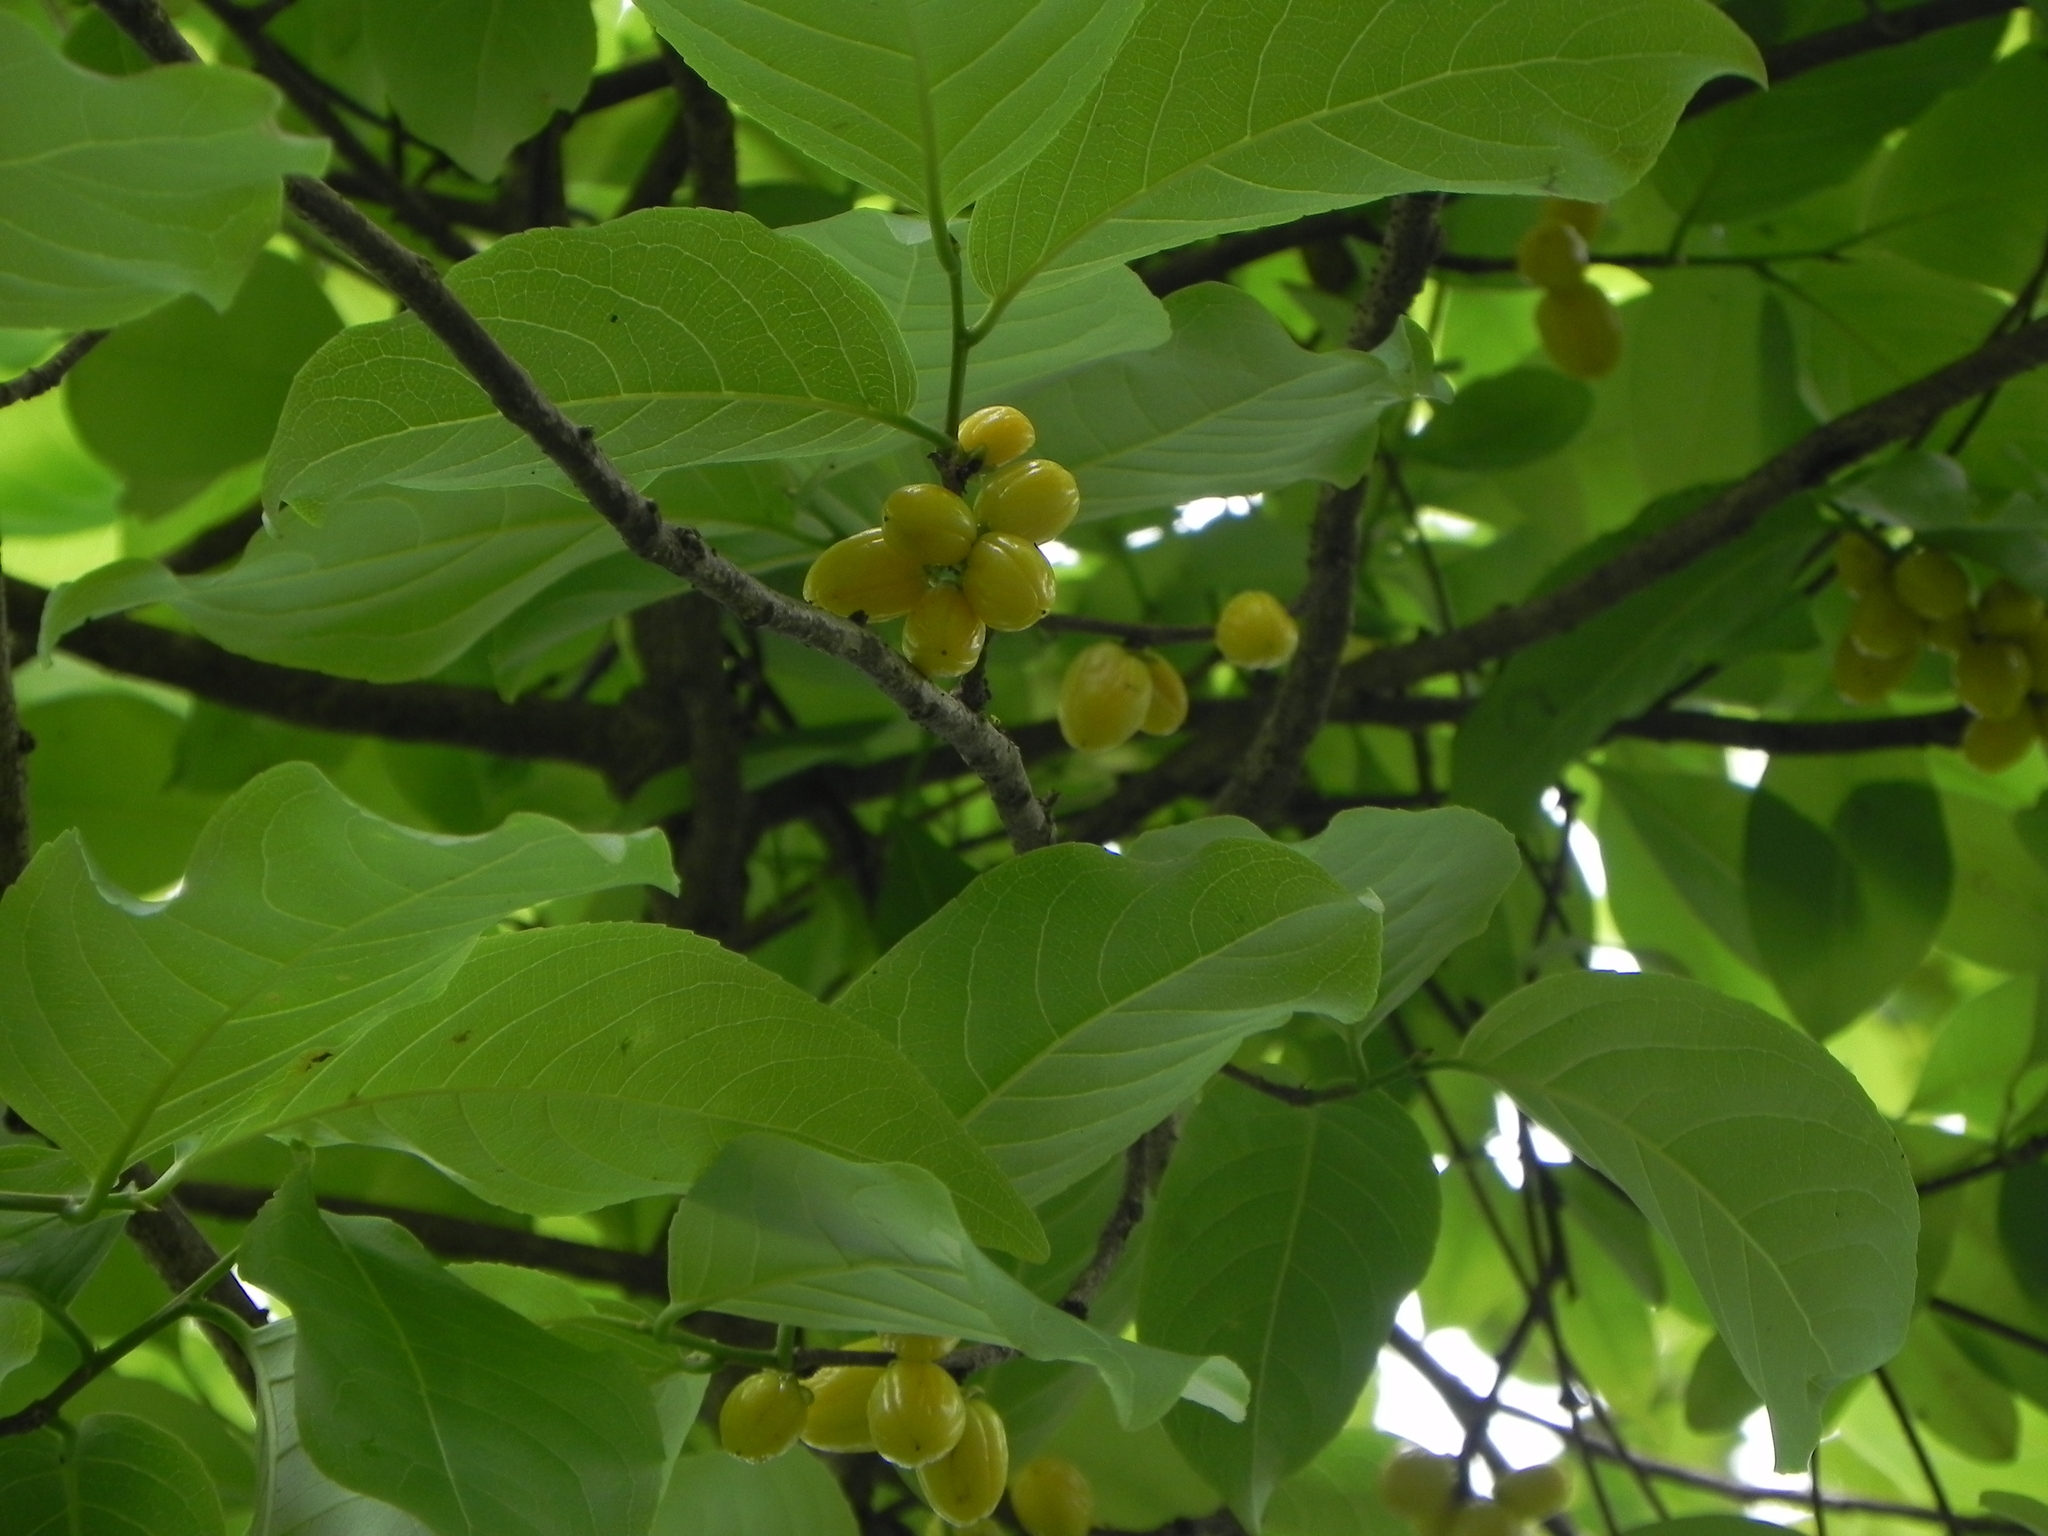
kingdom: Plantae
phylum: Tracheophyta
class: Magnoliopsida
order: Malpighiales
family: Salicaceae
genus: Casearia
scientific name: Casearia graveolens
